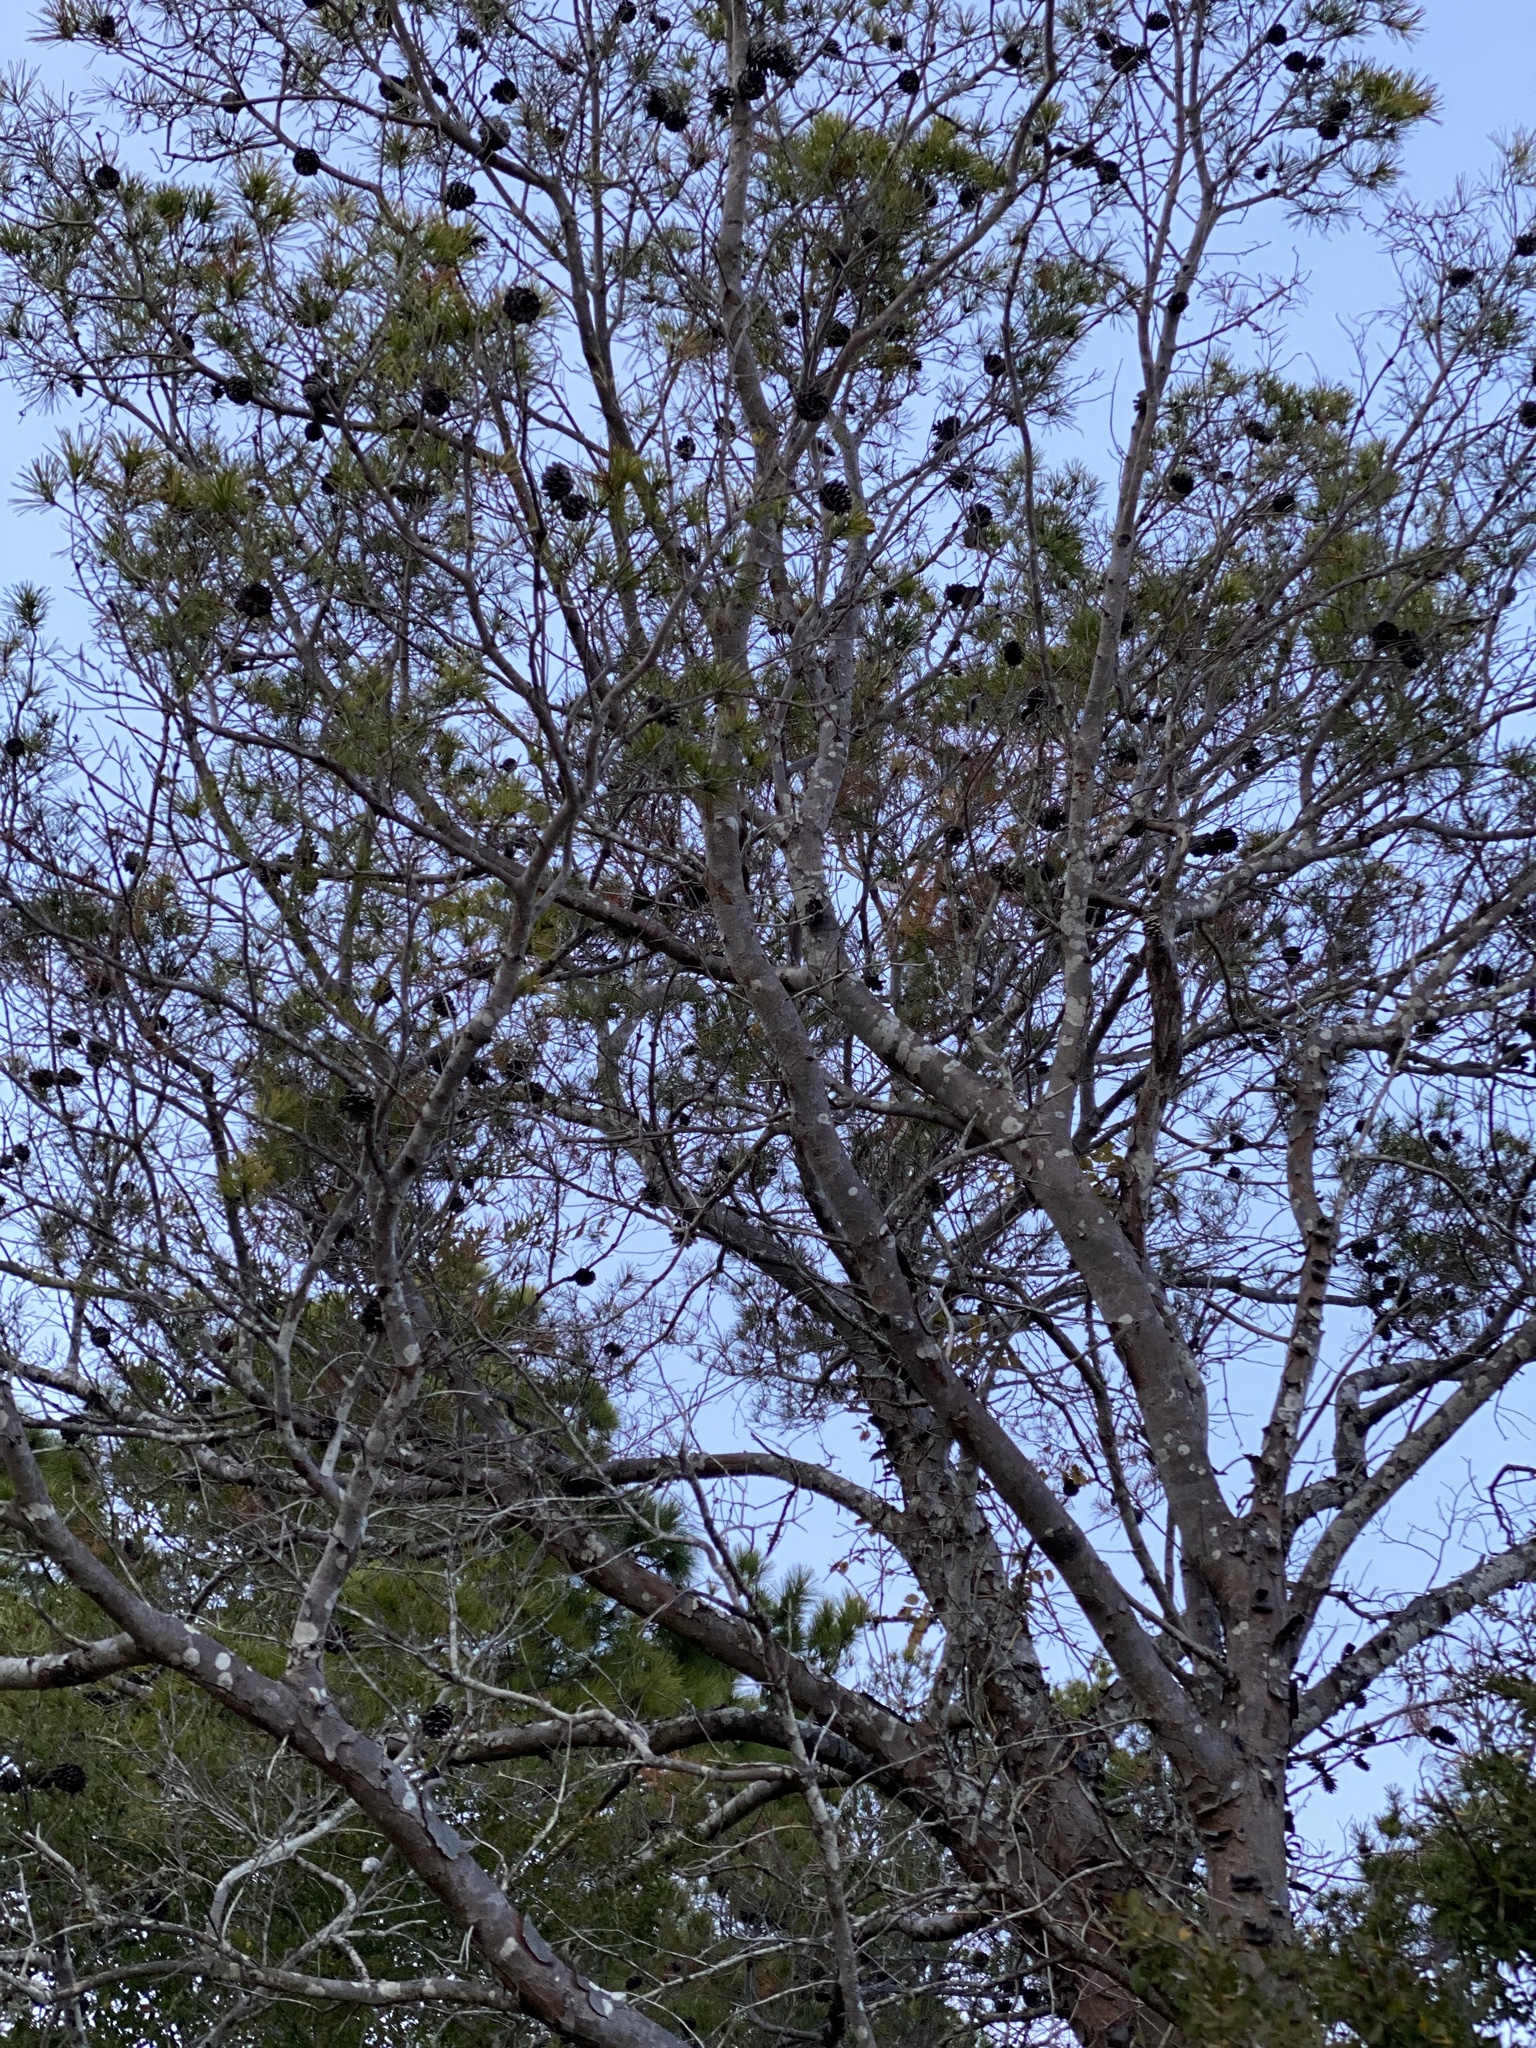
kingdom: Plantae
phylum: Tracheophyta
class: Pinopsida
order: Pinales
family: Pinaceae
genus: Pinus
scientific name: Pinus clausa
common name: Sand pine
